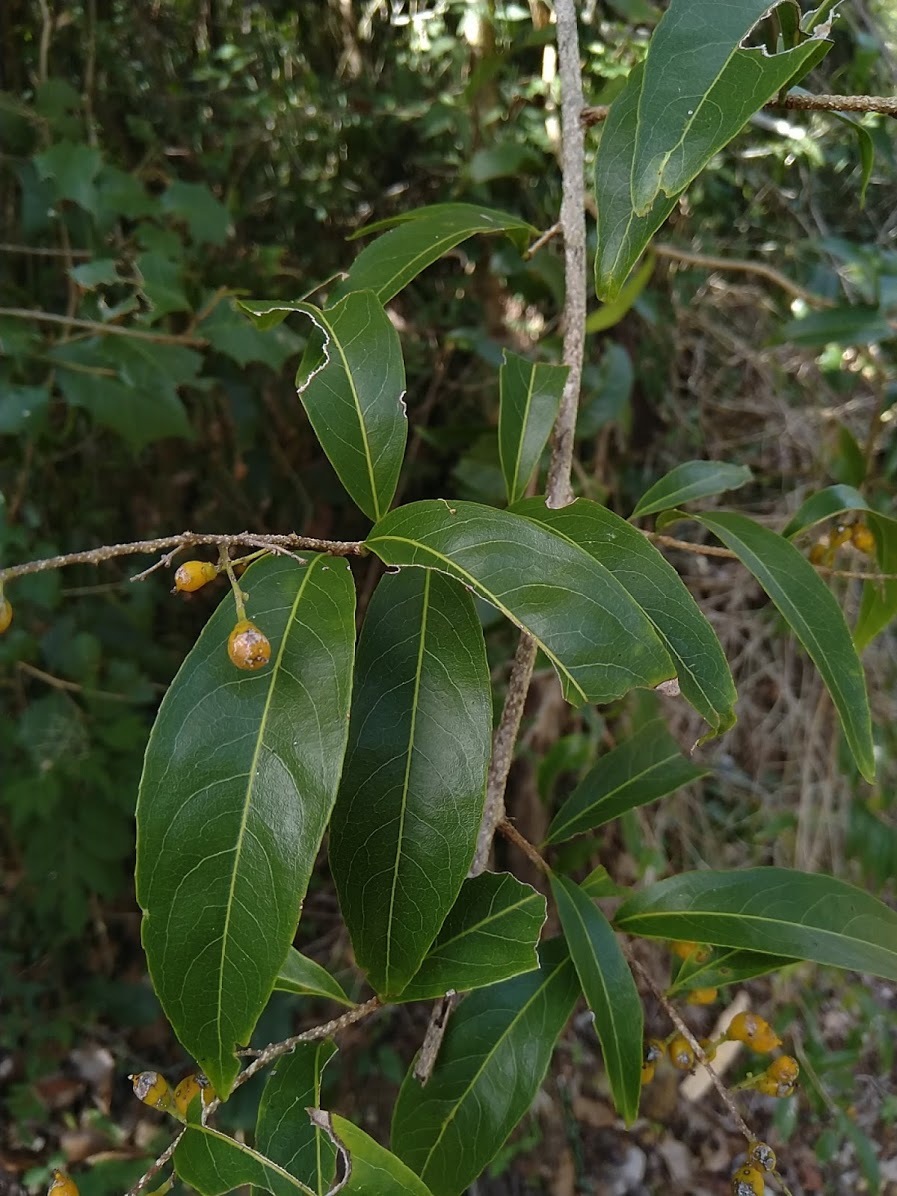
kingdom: Plantae
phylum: Tracheophyta
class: Magnoliopsida
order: Celastrales
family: Celastraceae
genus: Celastrus
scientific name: Celastrus subspicatus
